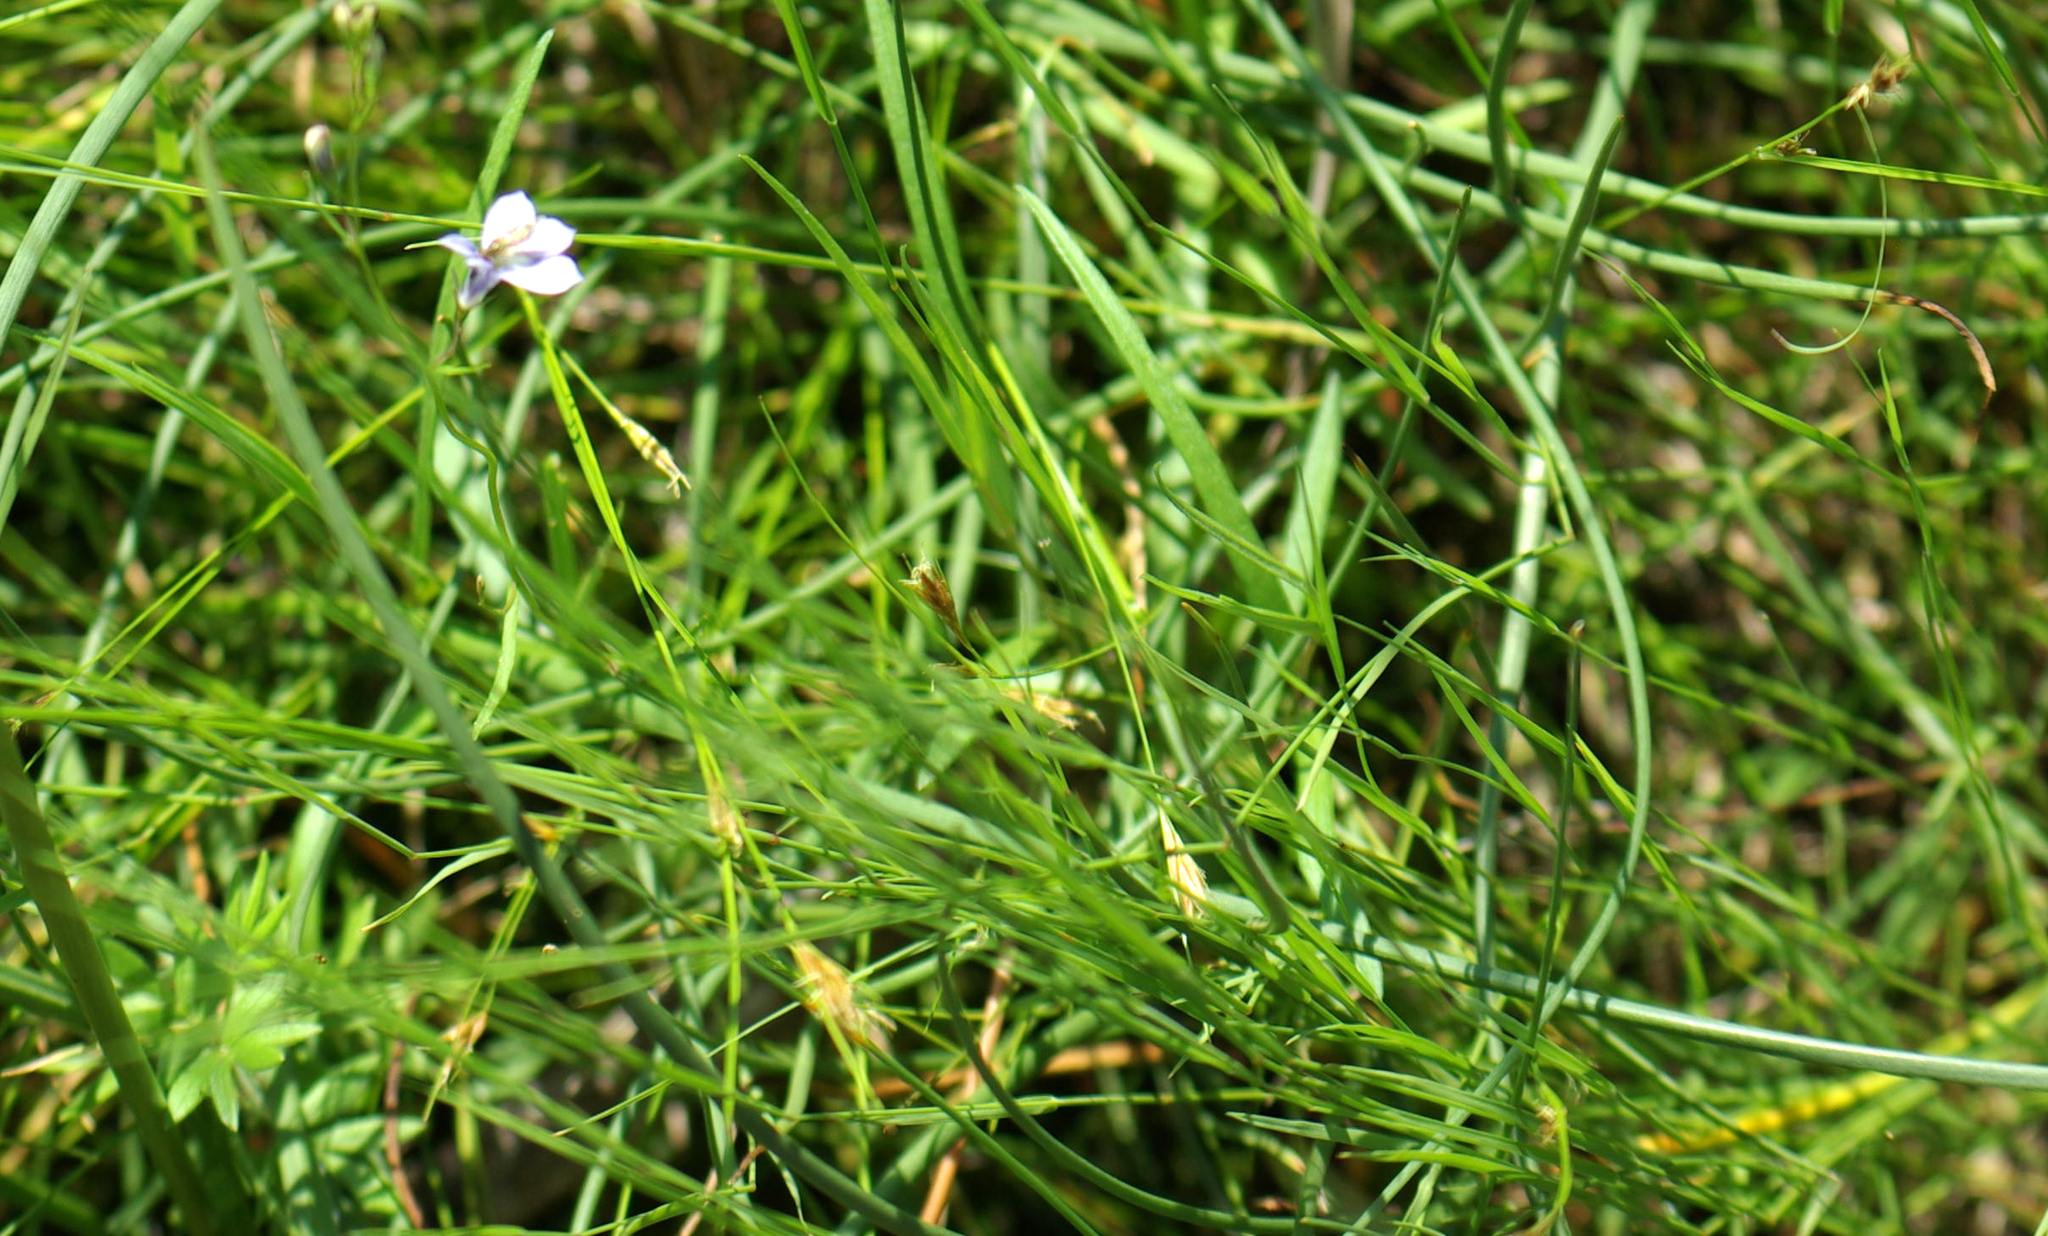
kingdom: Plantae
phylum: Tracheophyta
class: Magnoliopsida
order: Asterales
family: Campanulaceae
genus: Lobelia
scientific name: Lobelia kalmii
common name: Kalm's lobelia
